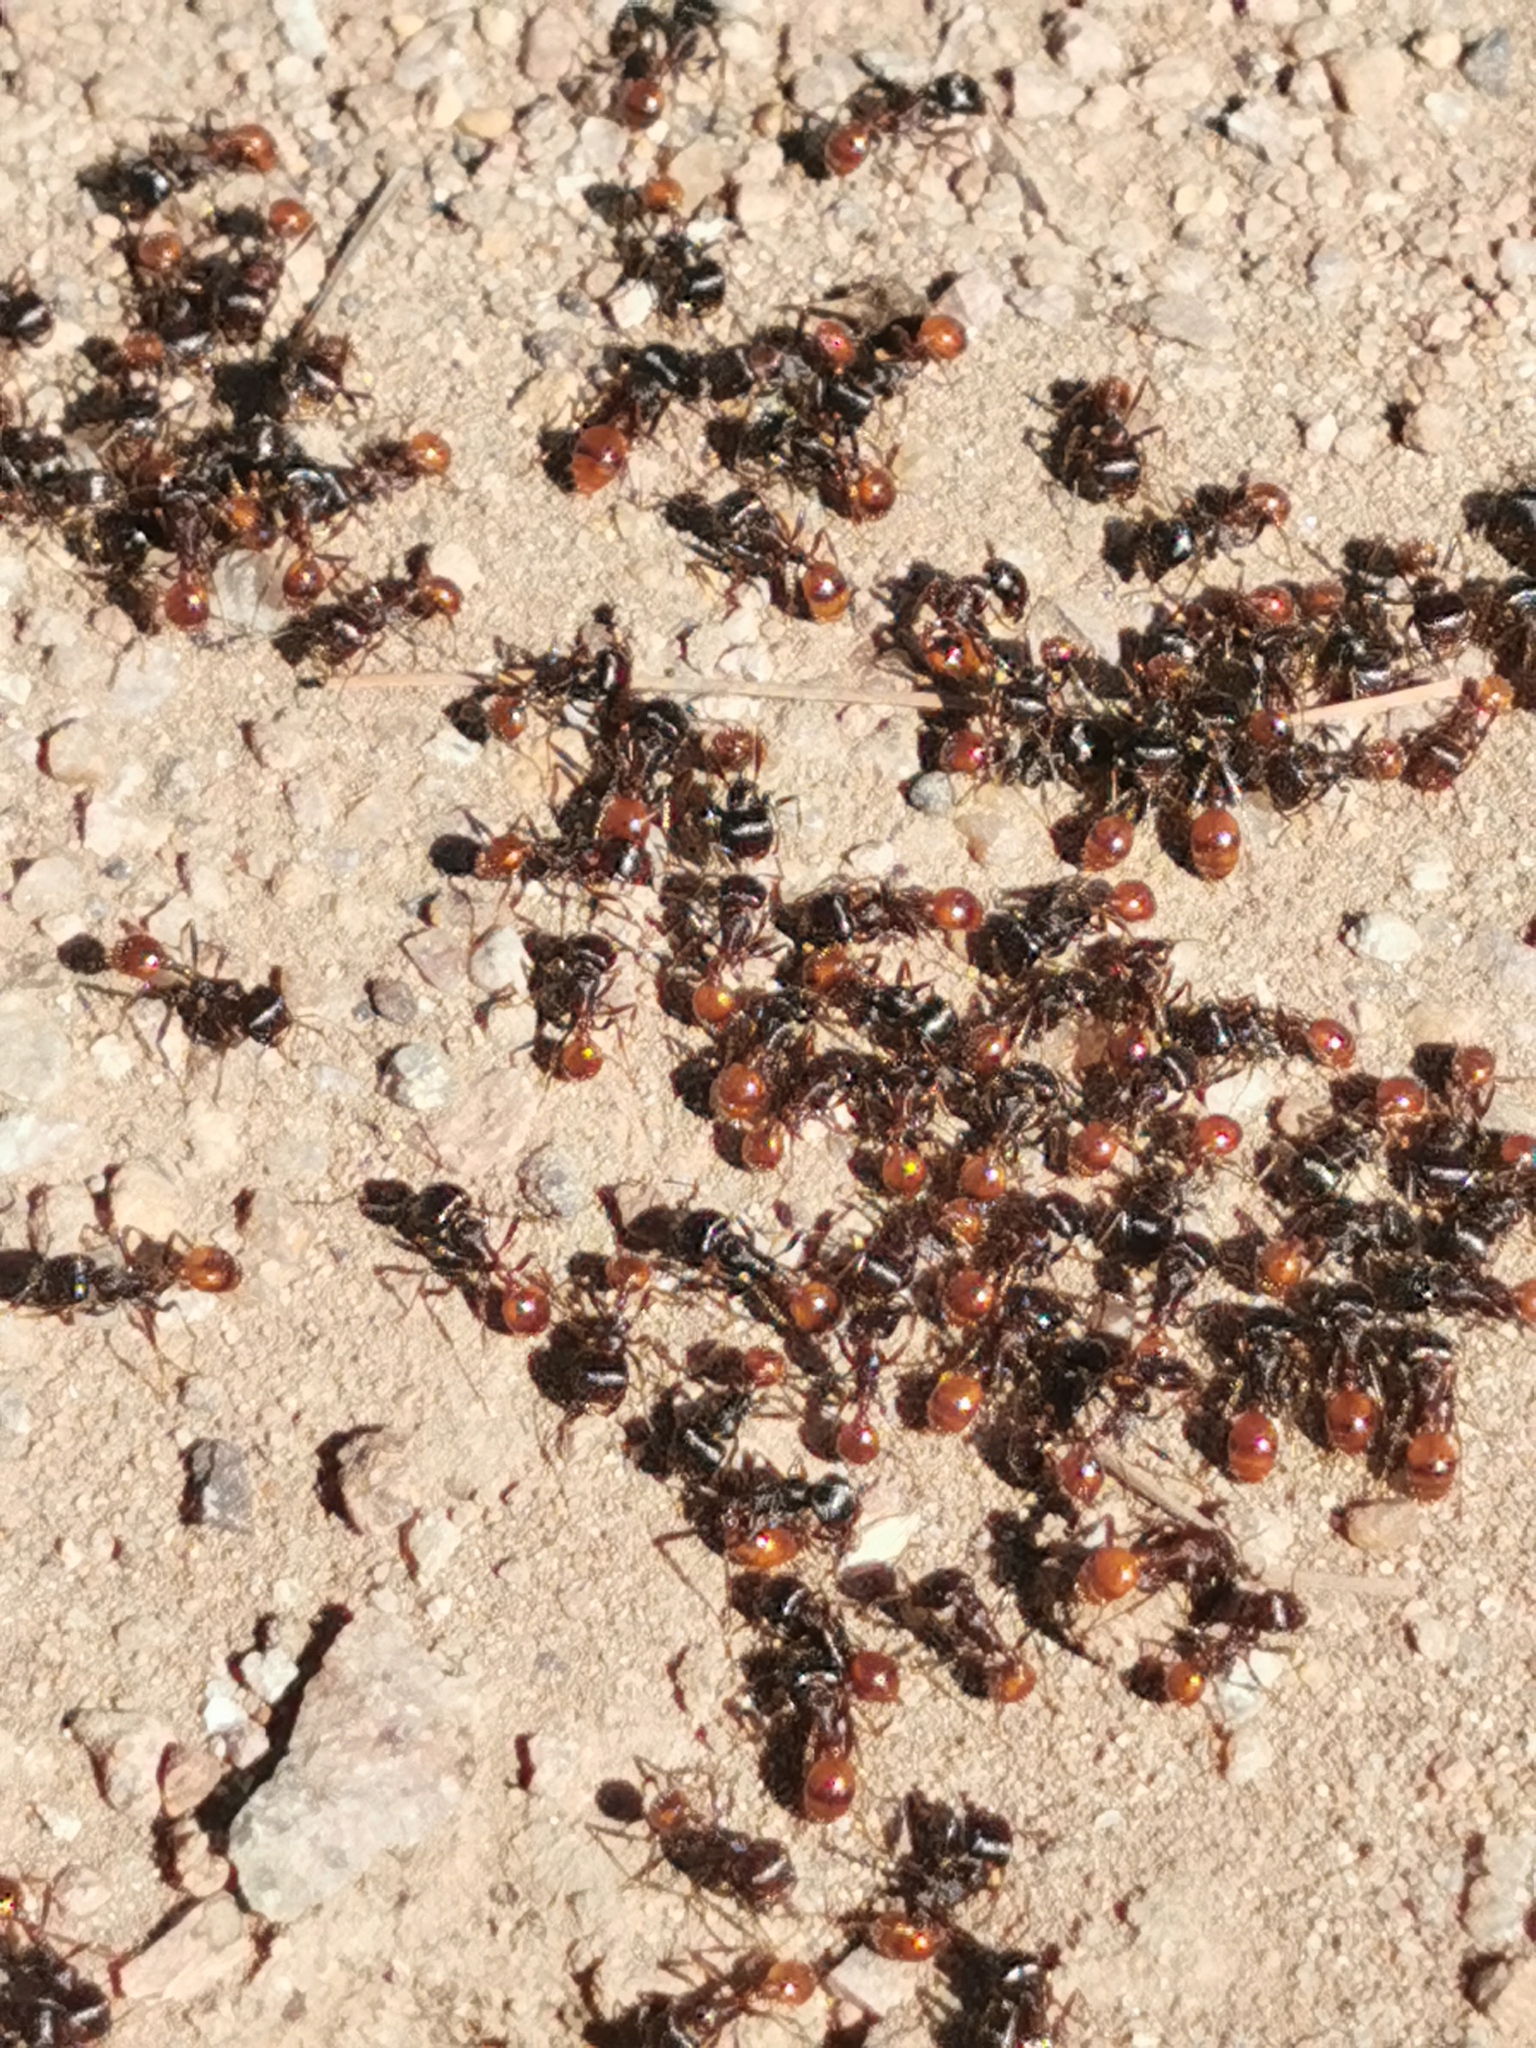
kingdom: Animalia
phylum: Arthropoda
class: Insecta
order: Hymenoptera
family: Formicidae
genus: Pogonomyrmex
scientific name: Pogonomyrmex rugosus
